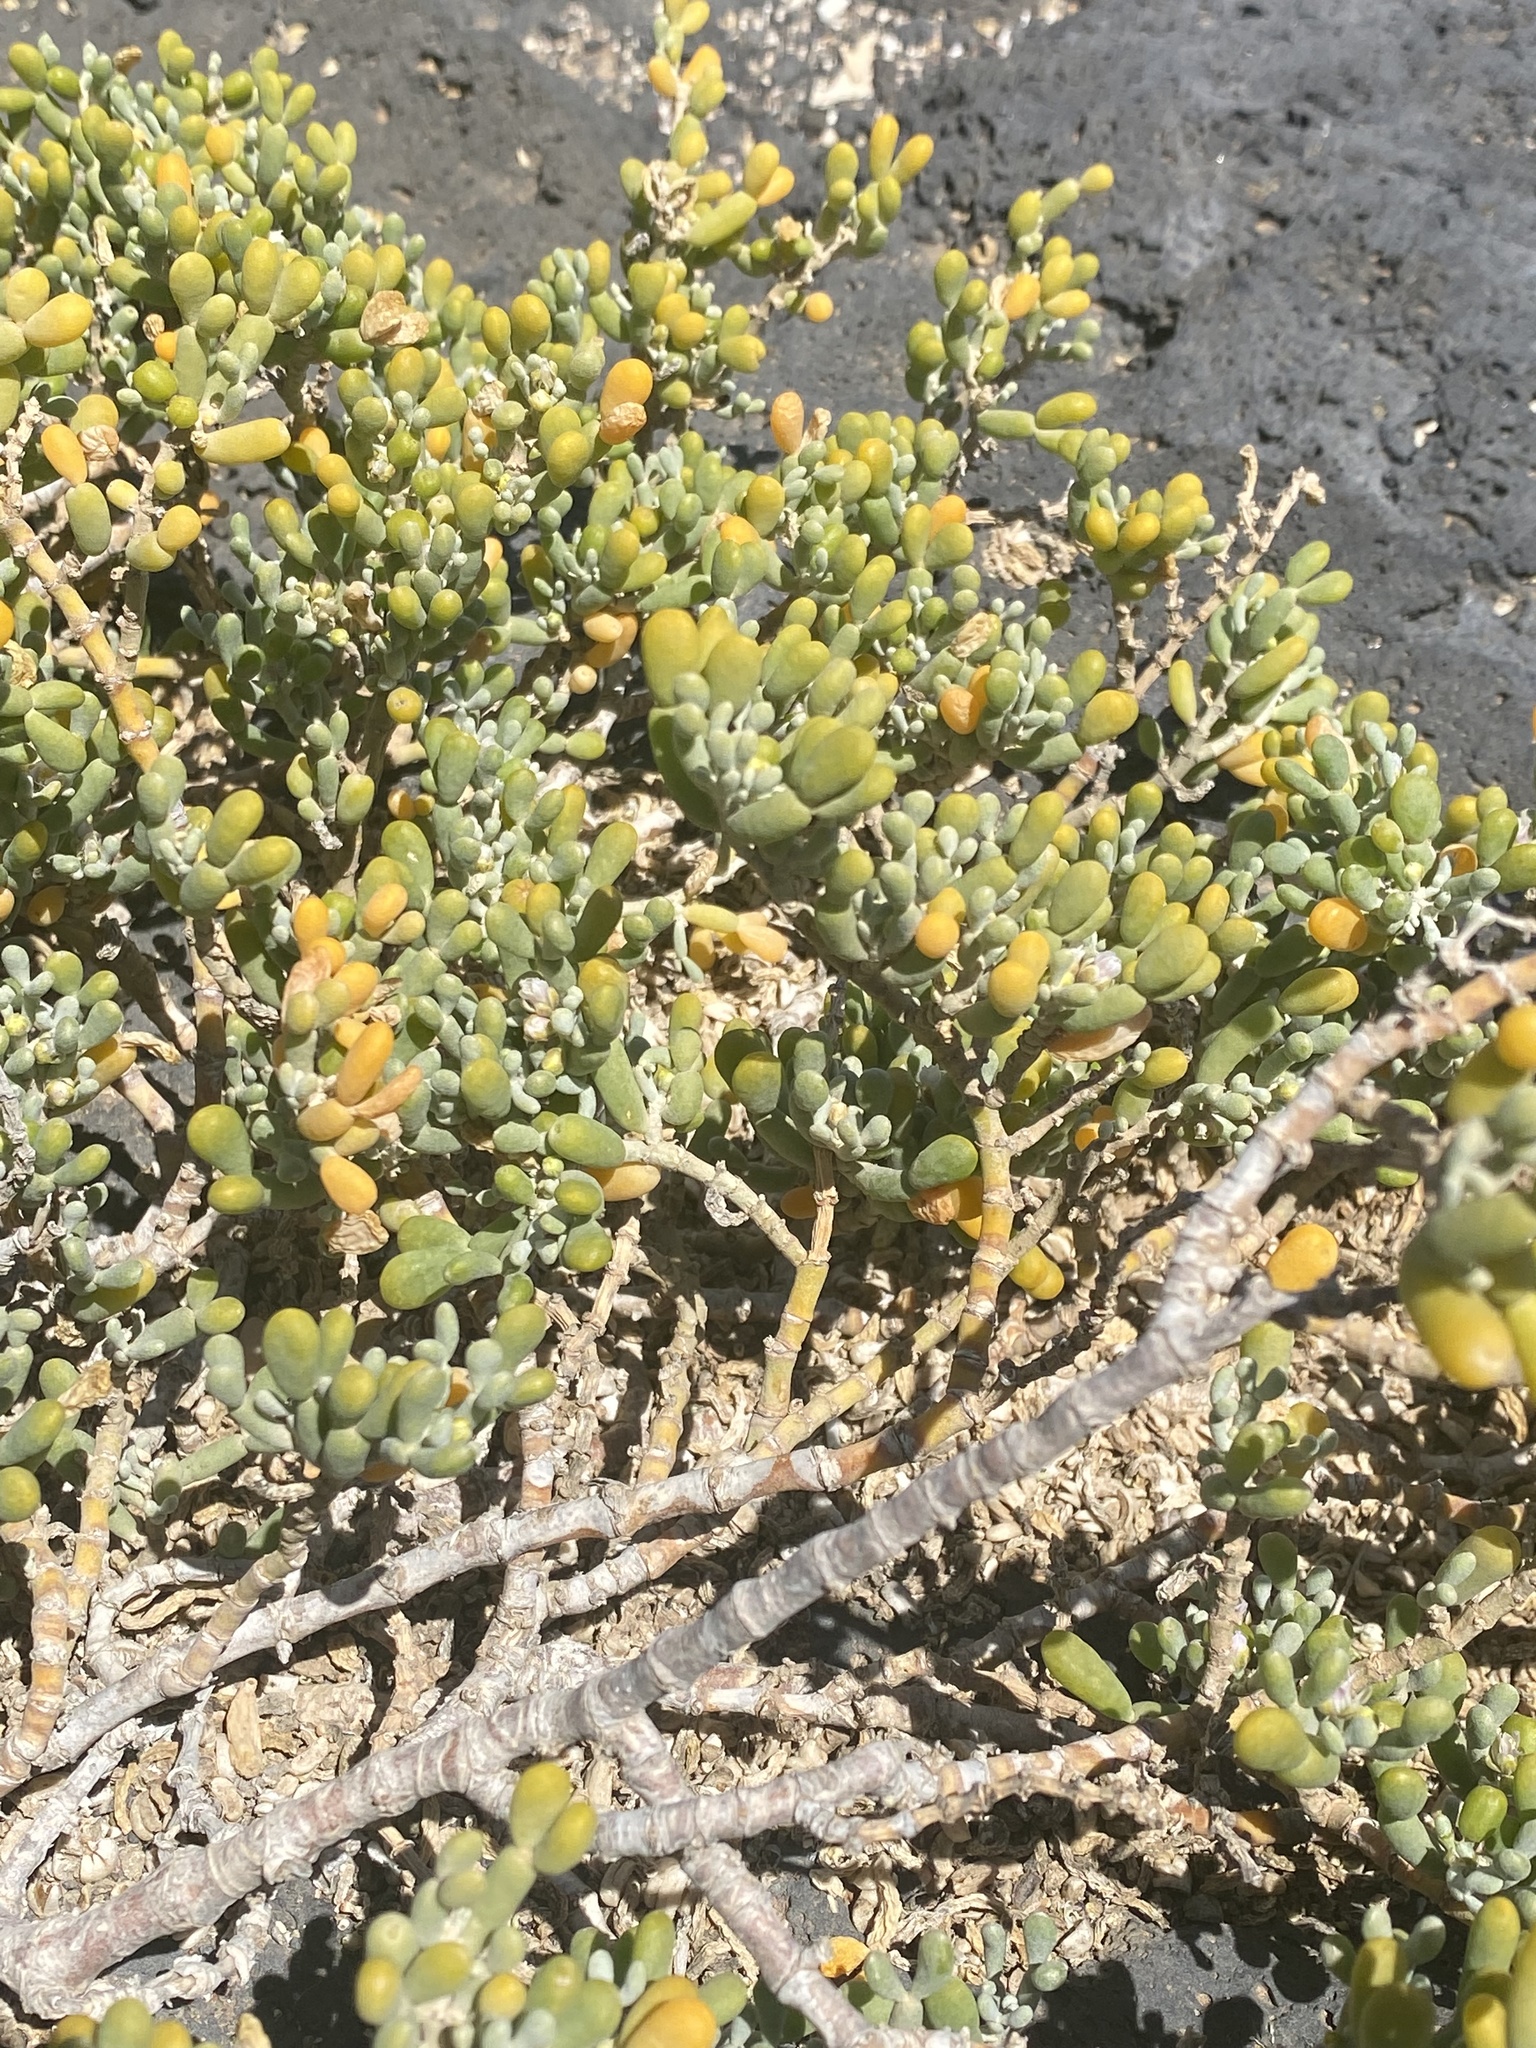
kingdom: Plantae
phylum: Tracheophyta
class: Magnoliopsida
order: Zygophyllales
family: Zygophyllaceae
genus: Tetraena
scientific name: Tetraena fontanesii
